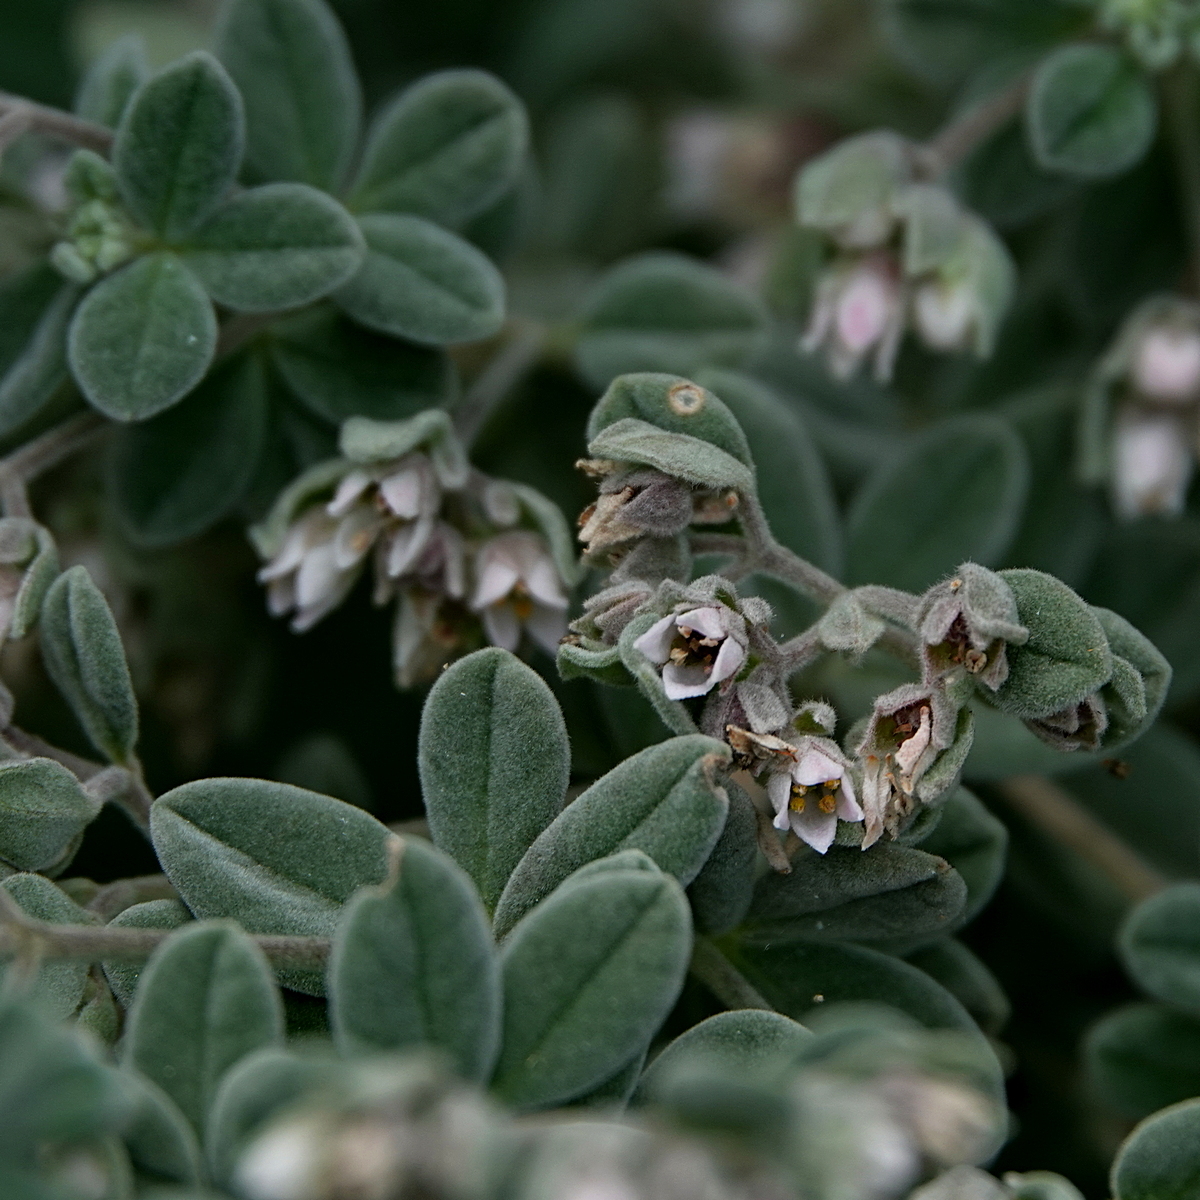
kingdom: Plantae
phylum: Tracheophyta
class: Magnoliopsida
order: Sapindales
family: Rutaceae
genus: Zieria
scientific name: Zieria littoralis
